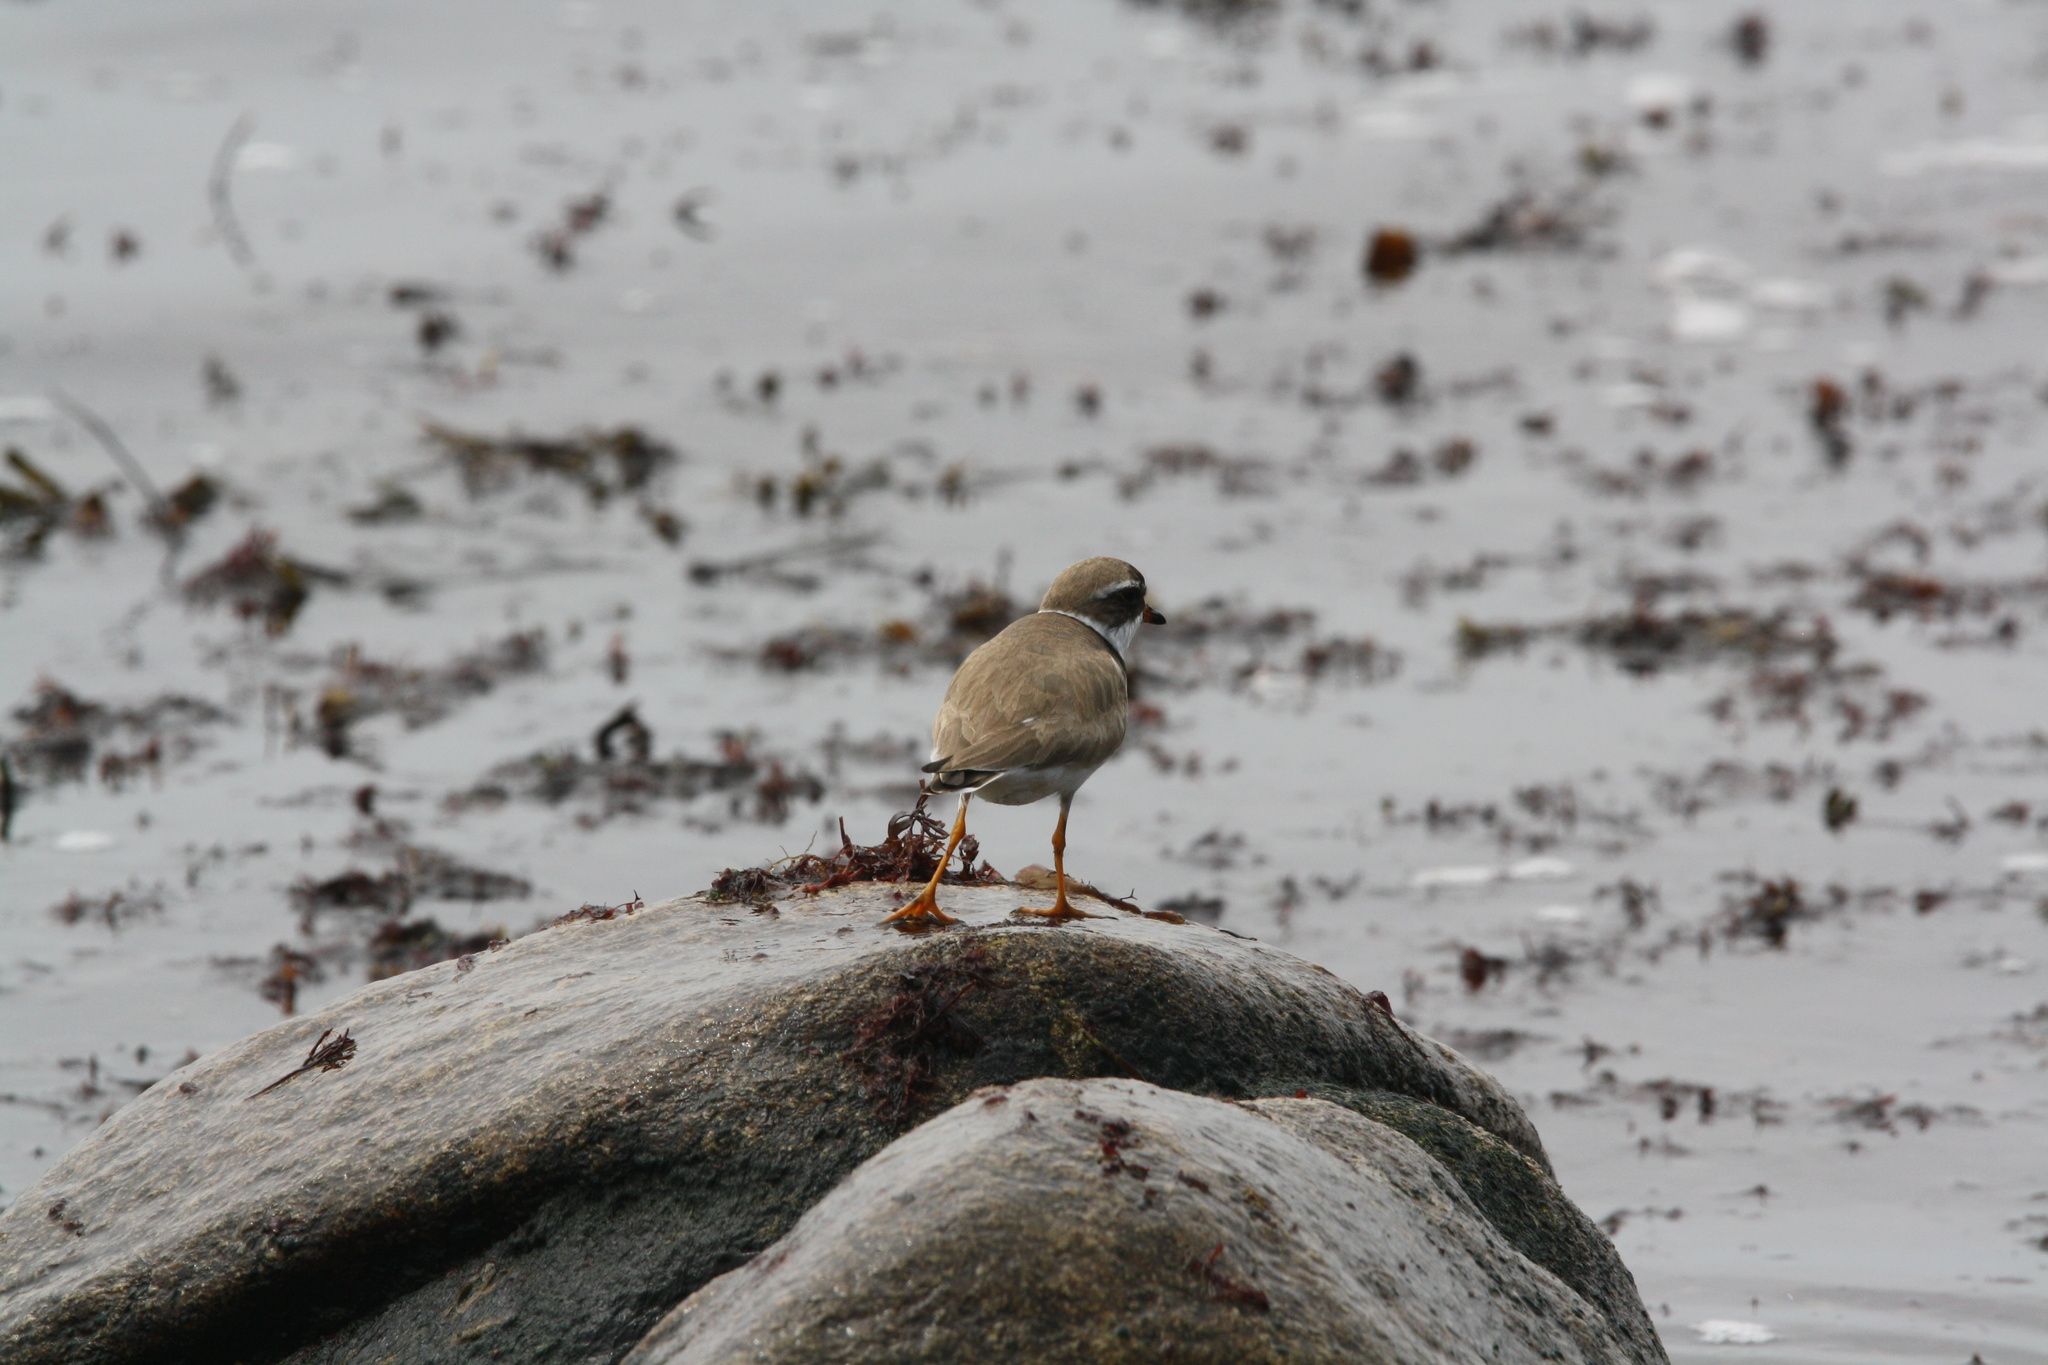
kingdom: Animalia
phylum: Chordata
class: Aves
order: Charadriiformes
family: Charadriidae
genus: Charadrius
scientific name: Charadrius semipalmatus
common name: Semipalmated plover
